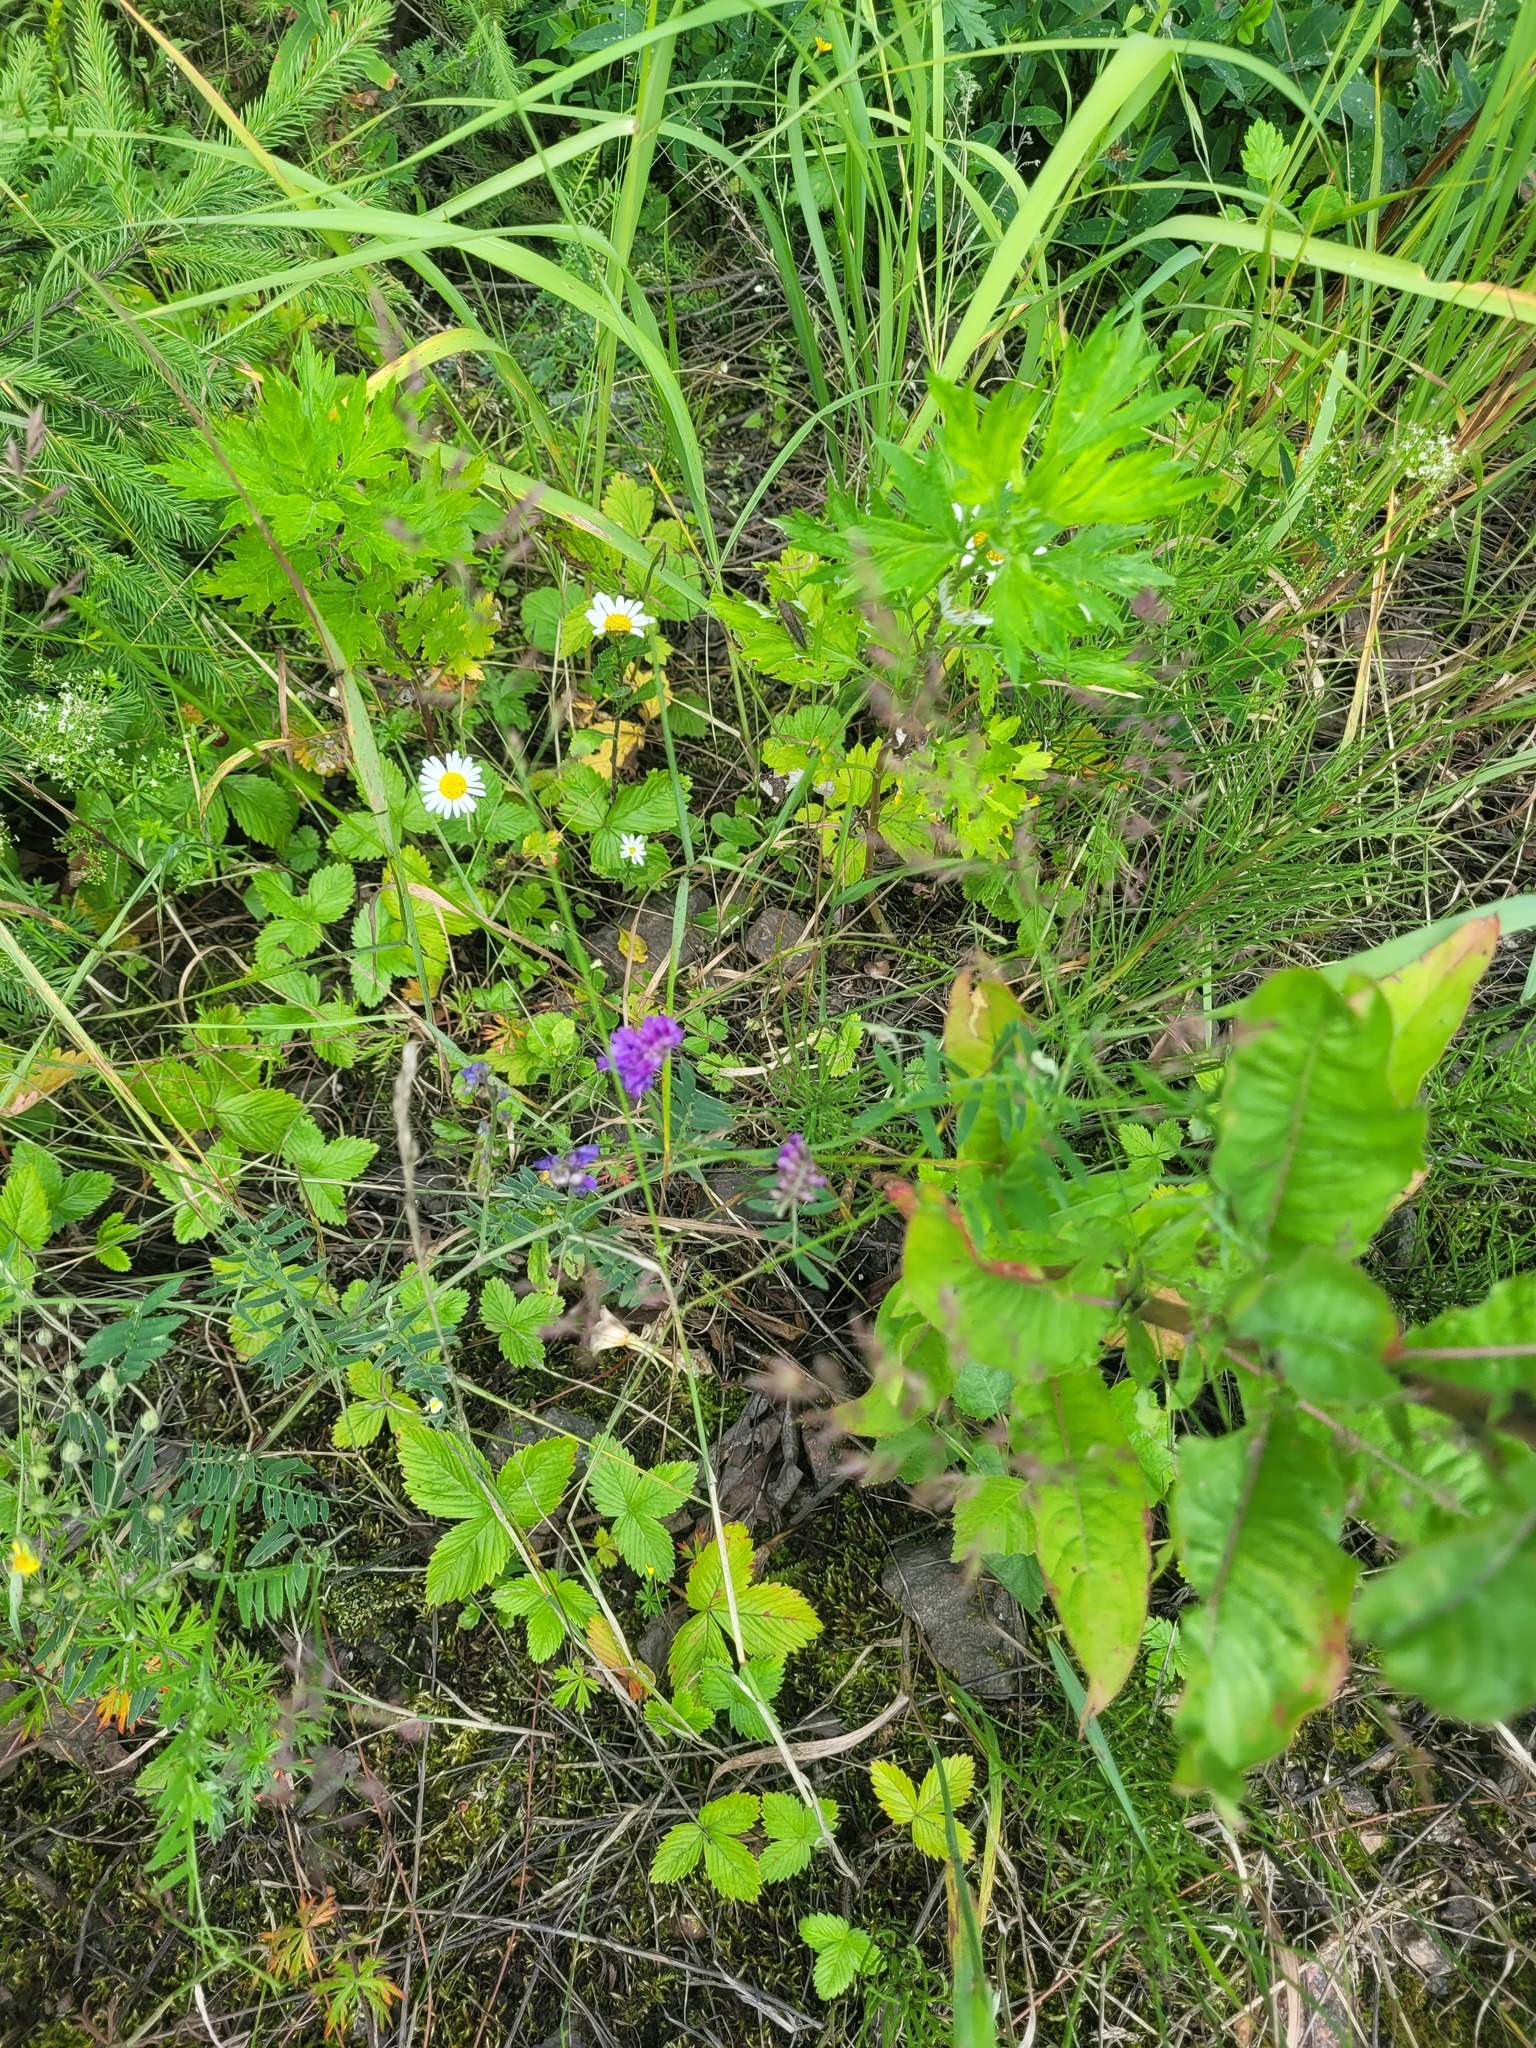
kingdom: Plantae
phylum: Tracheophyta
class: Magnoliopsida
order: Fabales
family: Fabaceae
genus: Vicia
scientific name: Vicia cracca
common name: Bird vetch
